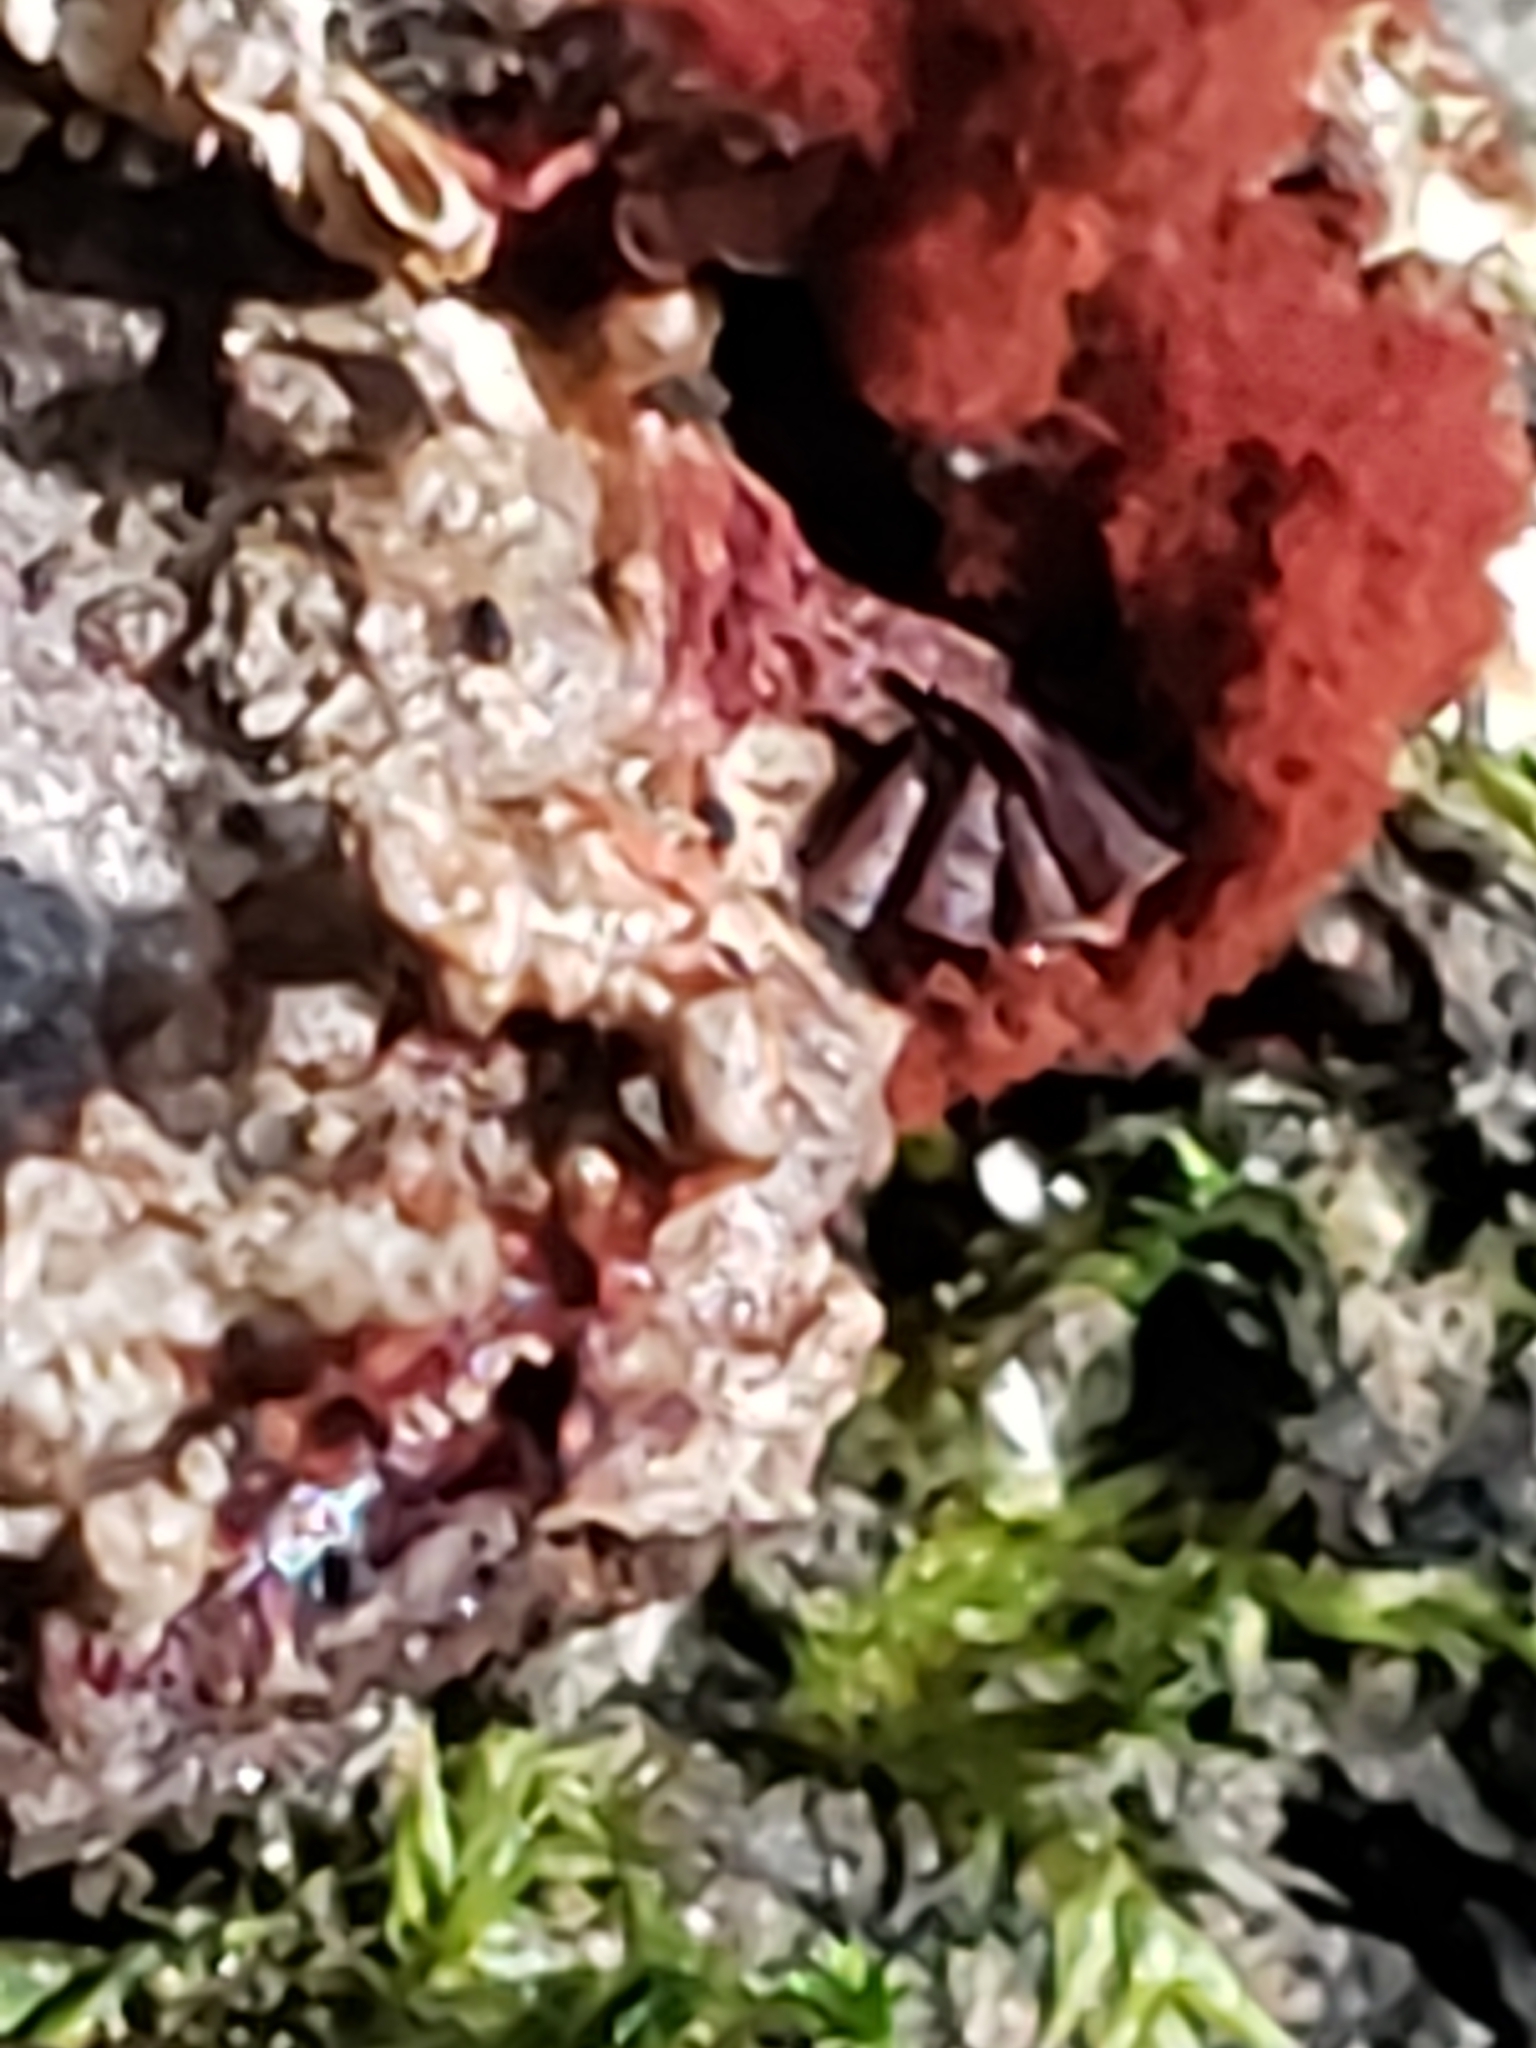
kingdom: Protozoa
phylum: Mycetozoa
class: Myxomycetes
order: Trichiales
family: Trichiaceae
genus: Metatrichia
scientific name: Metatrichia vesparia
